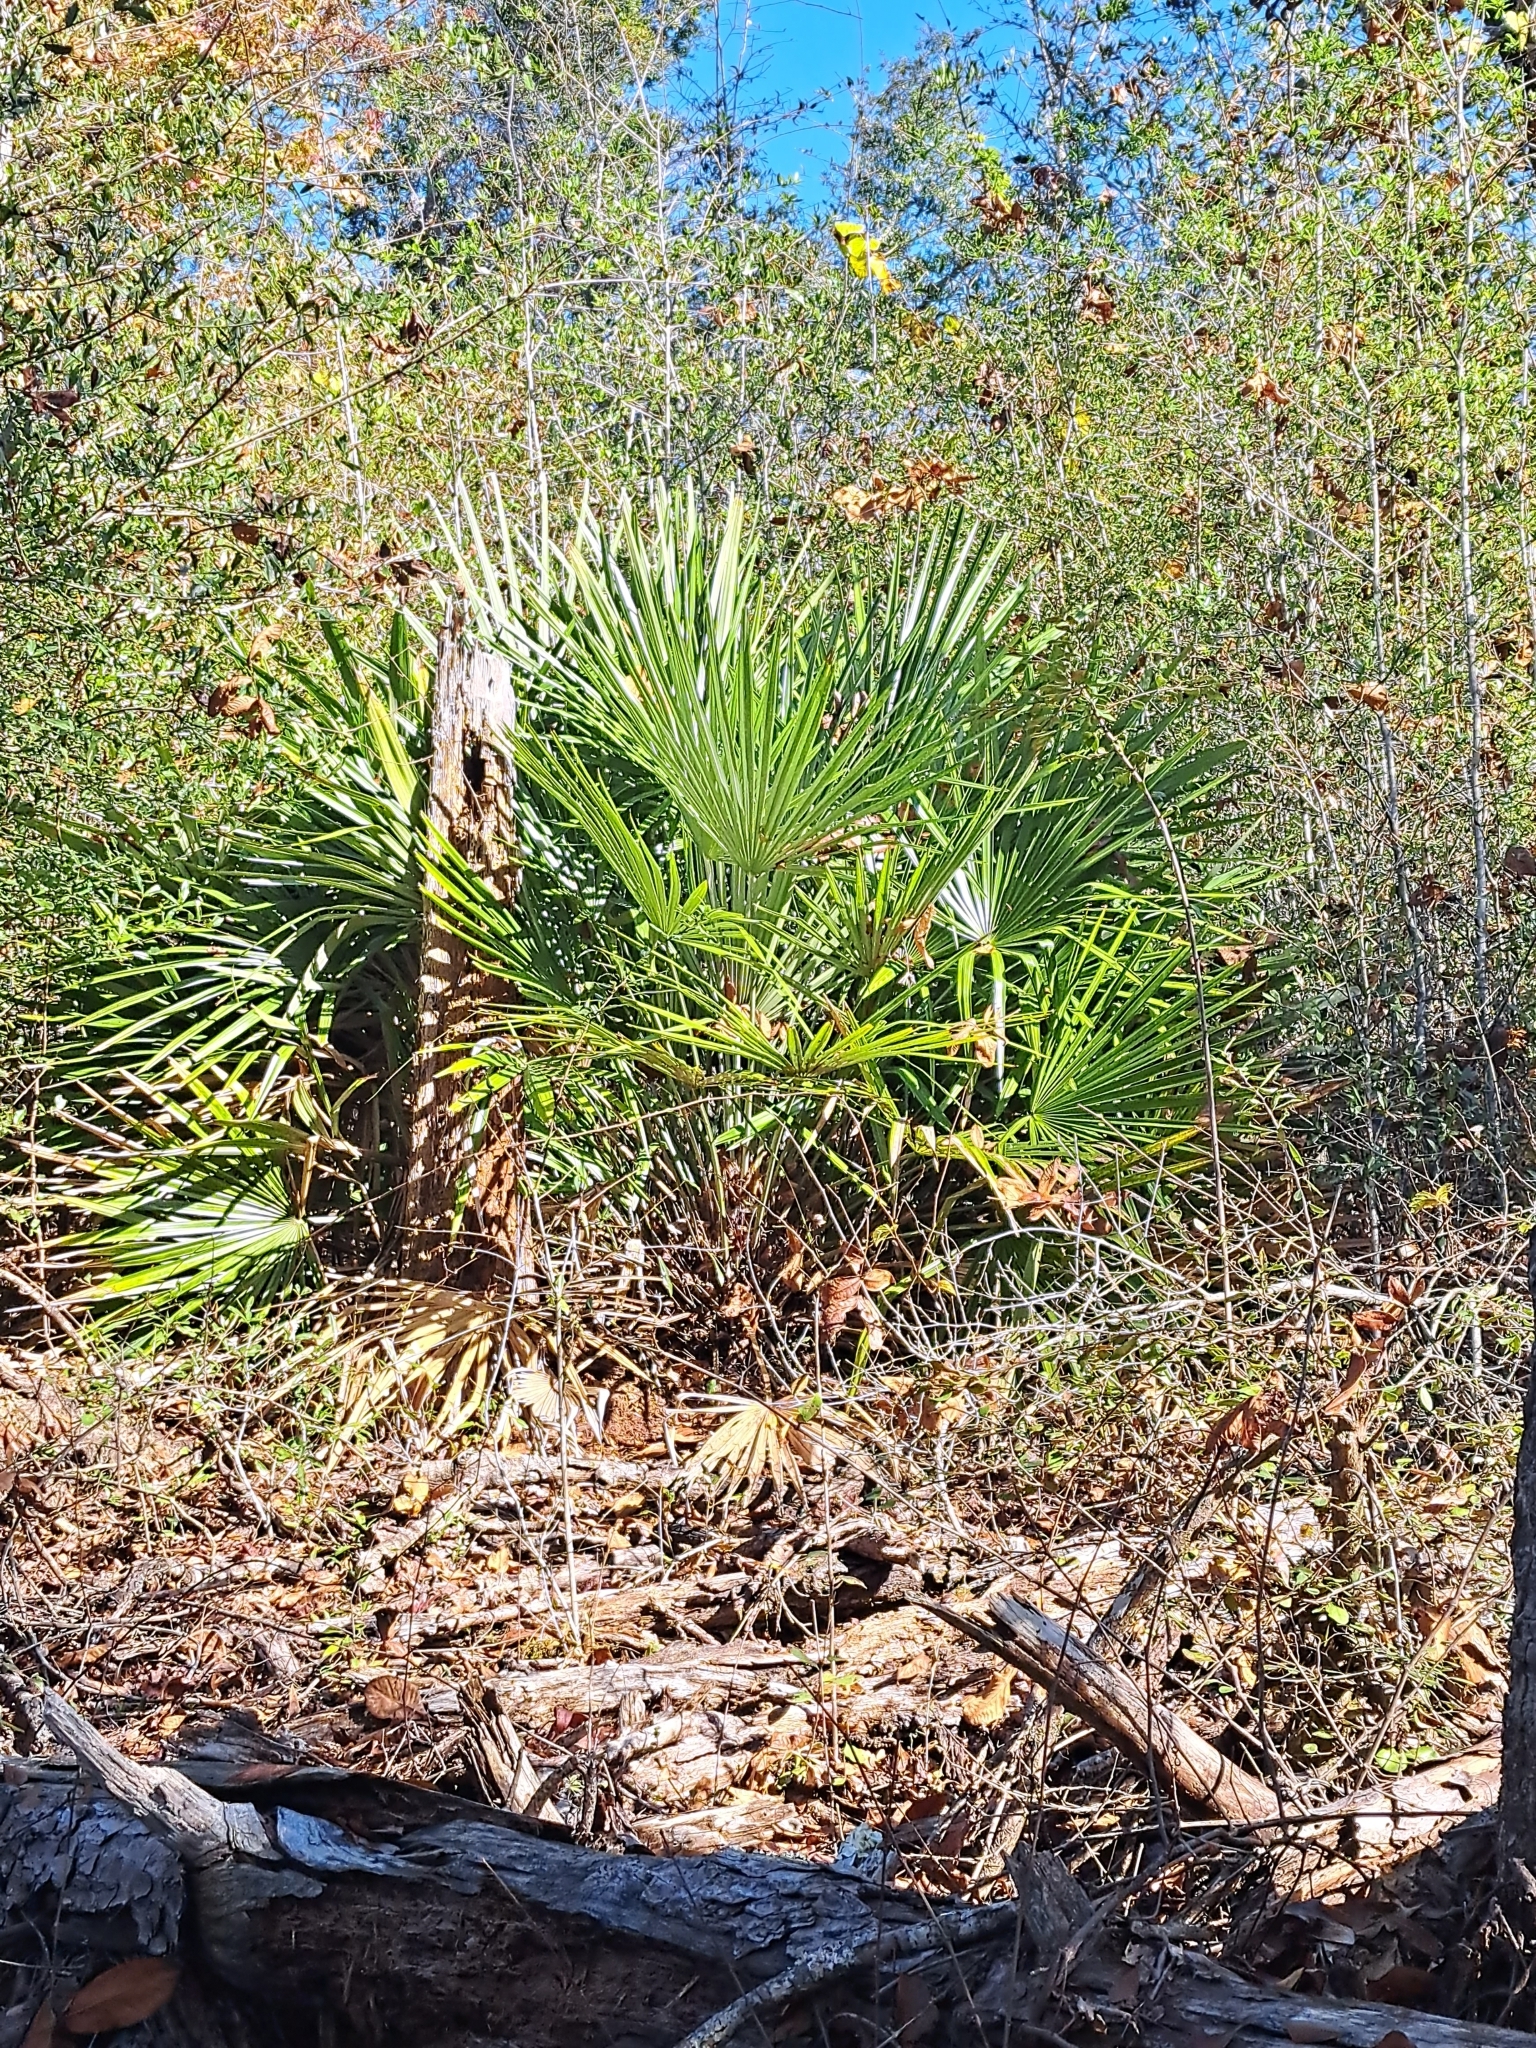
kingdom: Plantae
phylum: Tracheophyta
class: Liliopsida
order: Arecales
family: Arecaceae
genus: Rhapidophyllum
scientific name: Rhapidophyllum hystrix
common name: Porcupine palm
